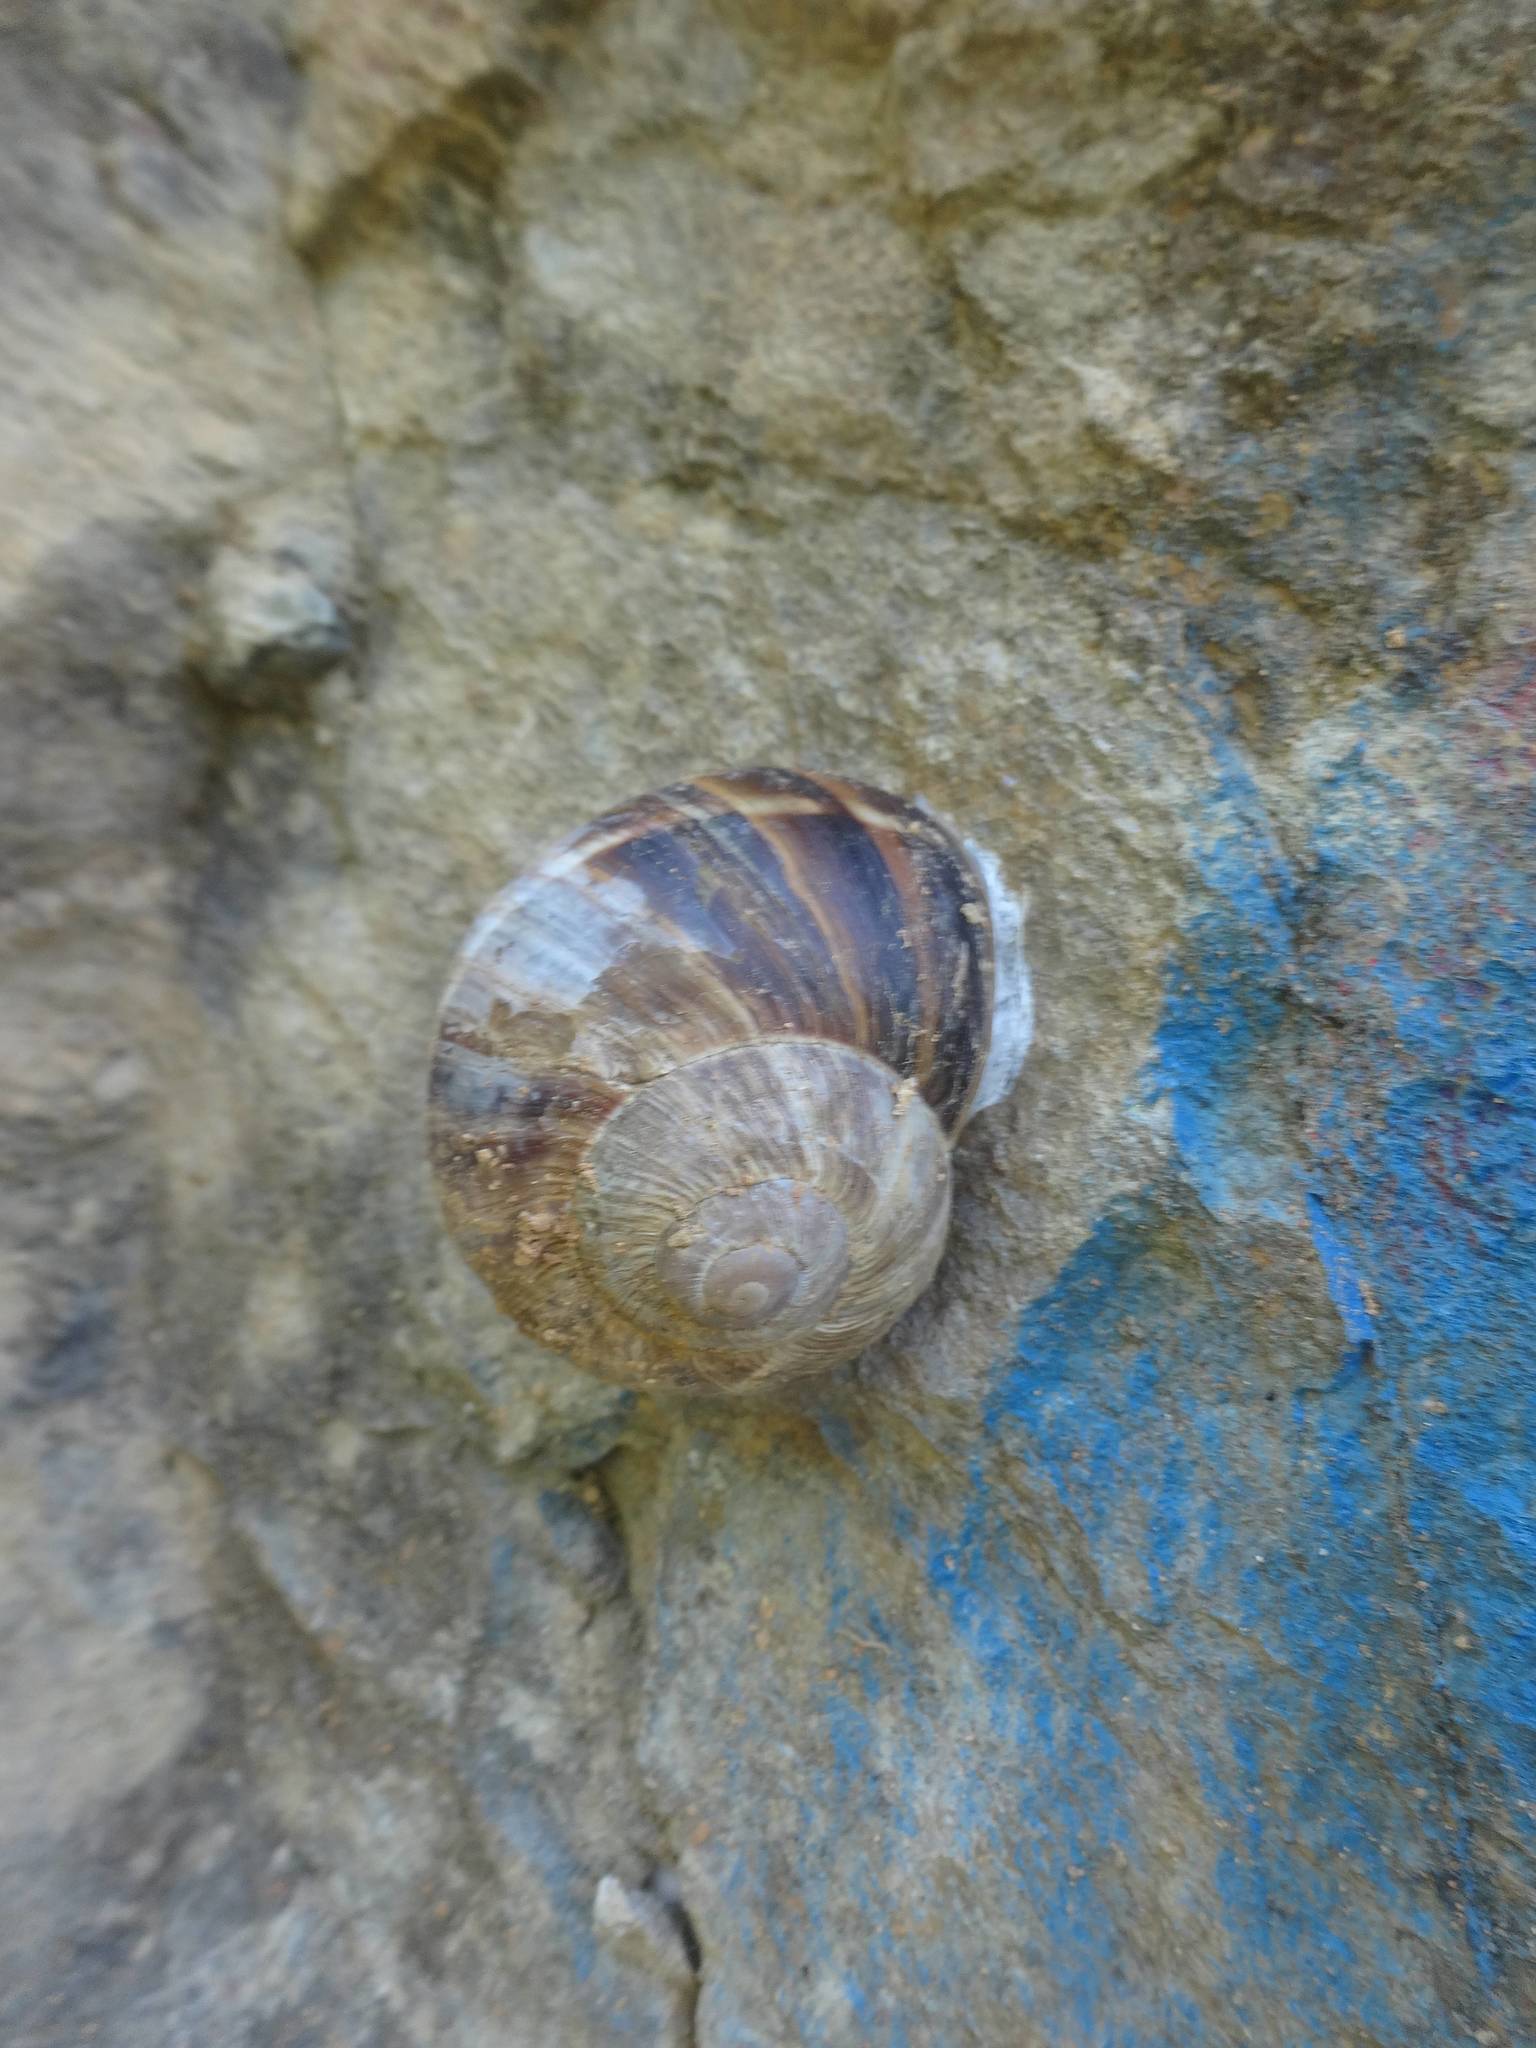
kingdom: Animalia
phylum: Mollusca
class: Gastropoda
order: Stylommatophora
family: Helicidae
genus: Helix
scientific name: Helix lucorum
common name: Turkish snail
